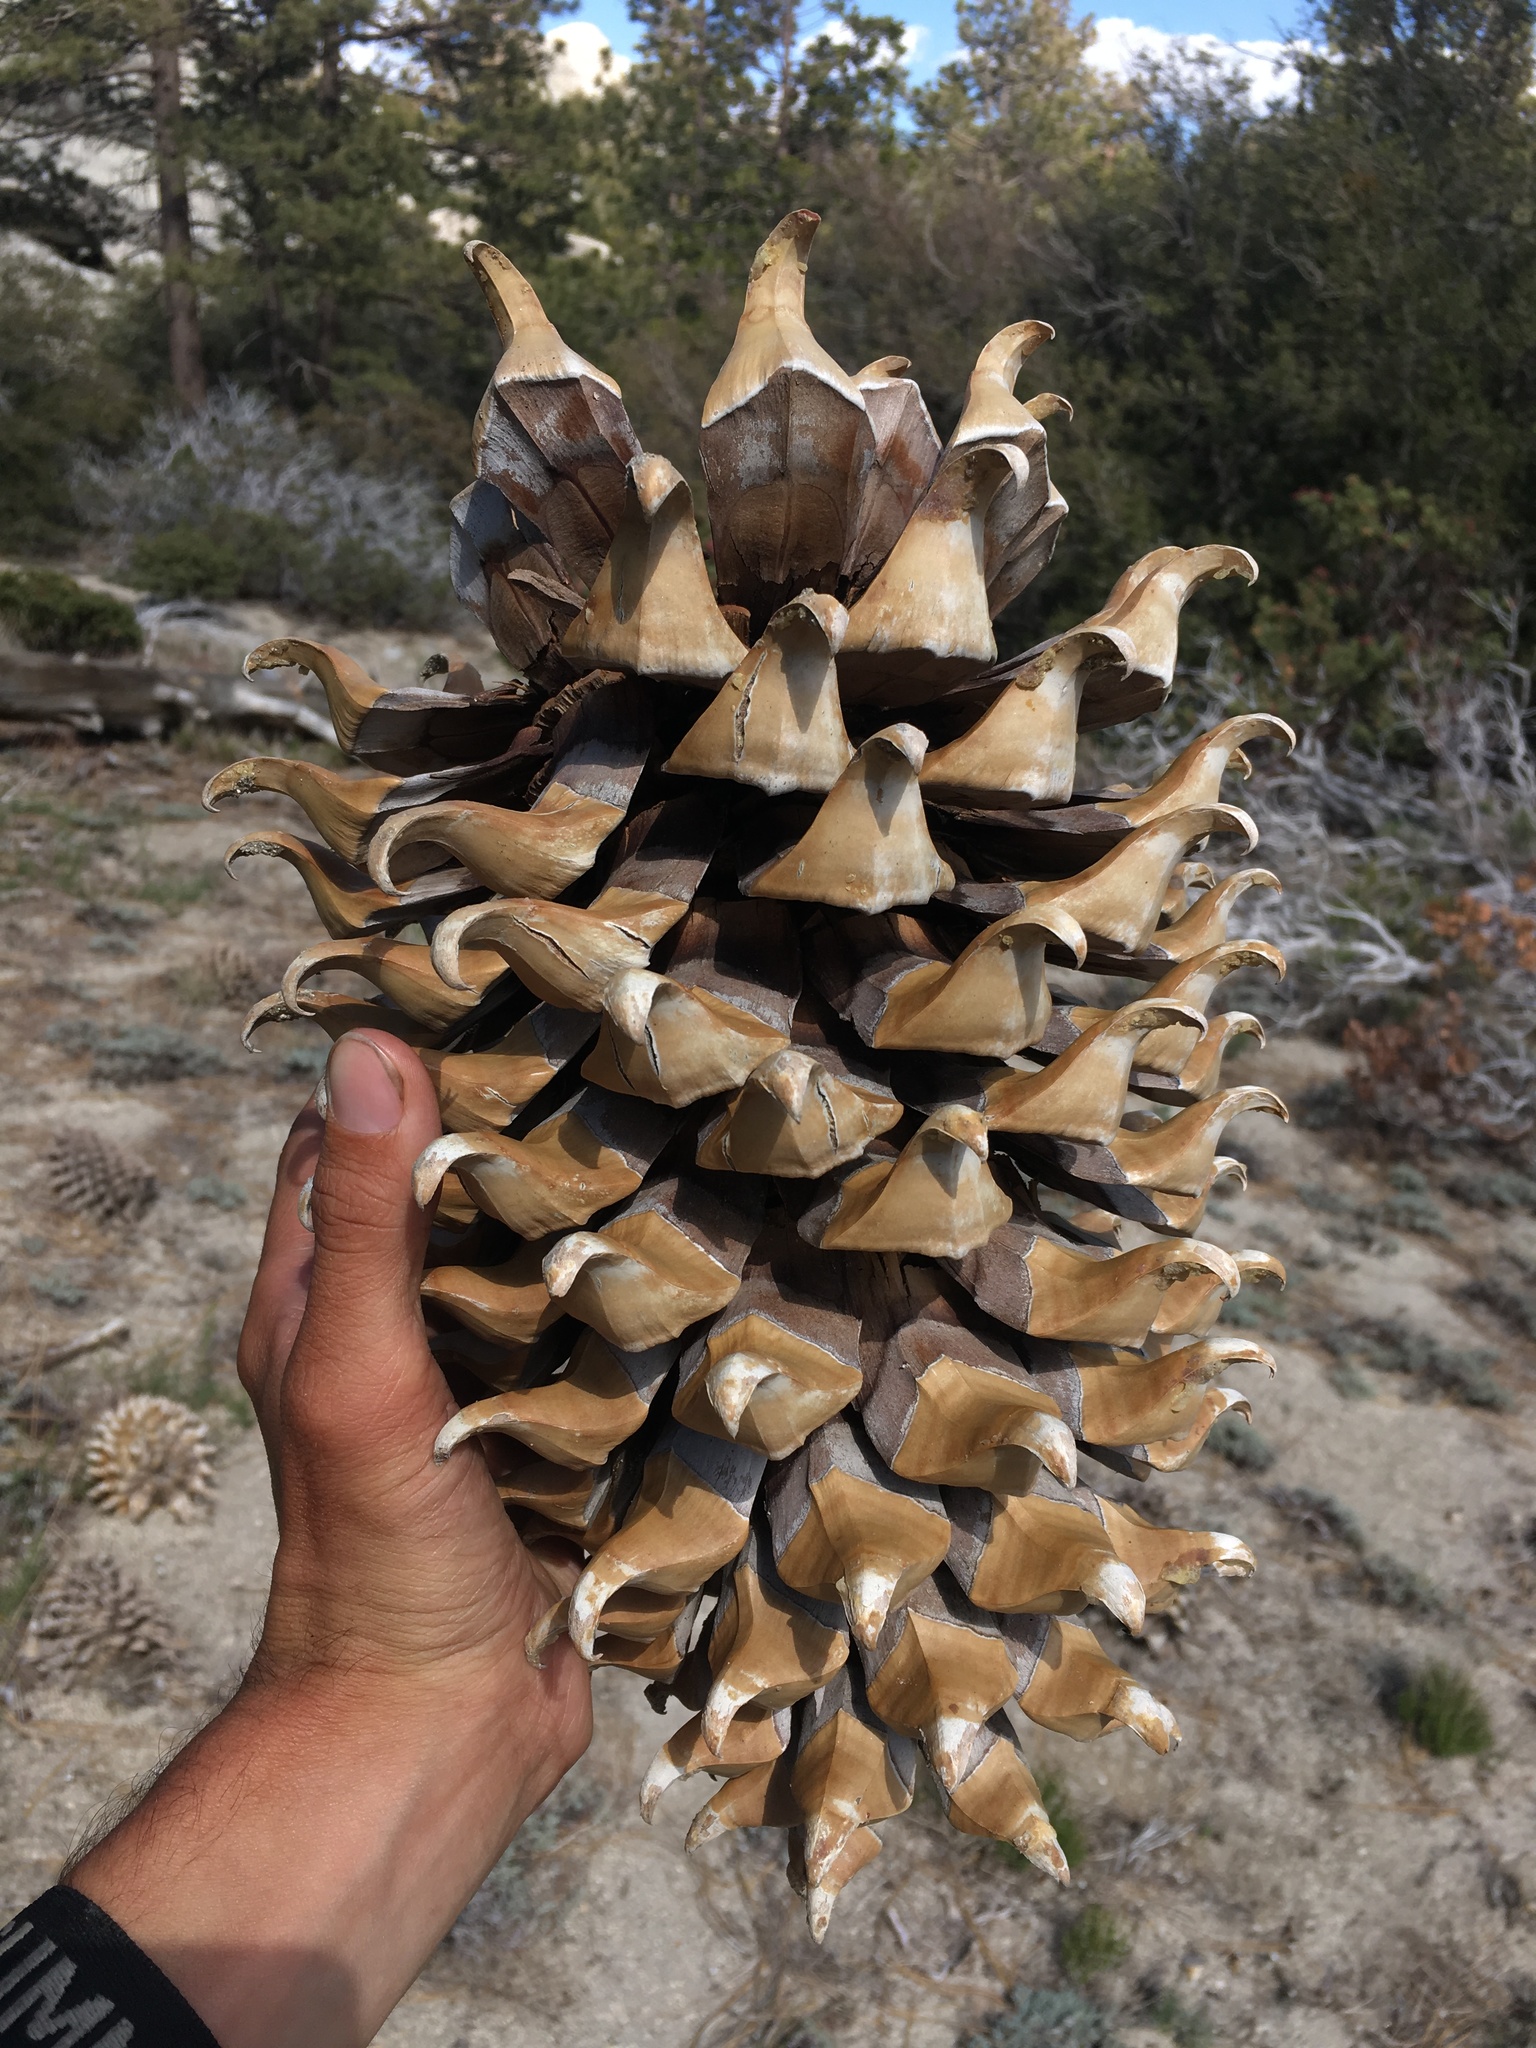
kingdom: Plantae
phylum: Tracheophyta
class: Pinopsida
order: Pinales
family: Pinaceae
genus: Pinus
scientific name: Pinus coulteri
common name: Coulter pine
